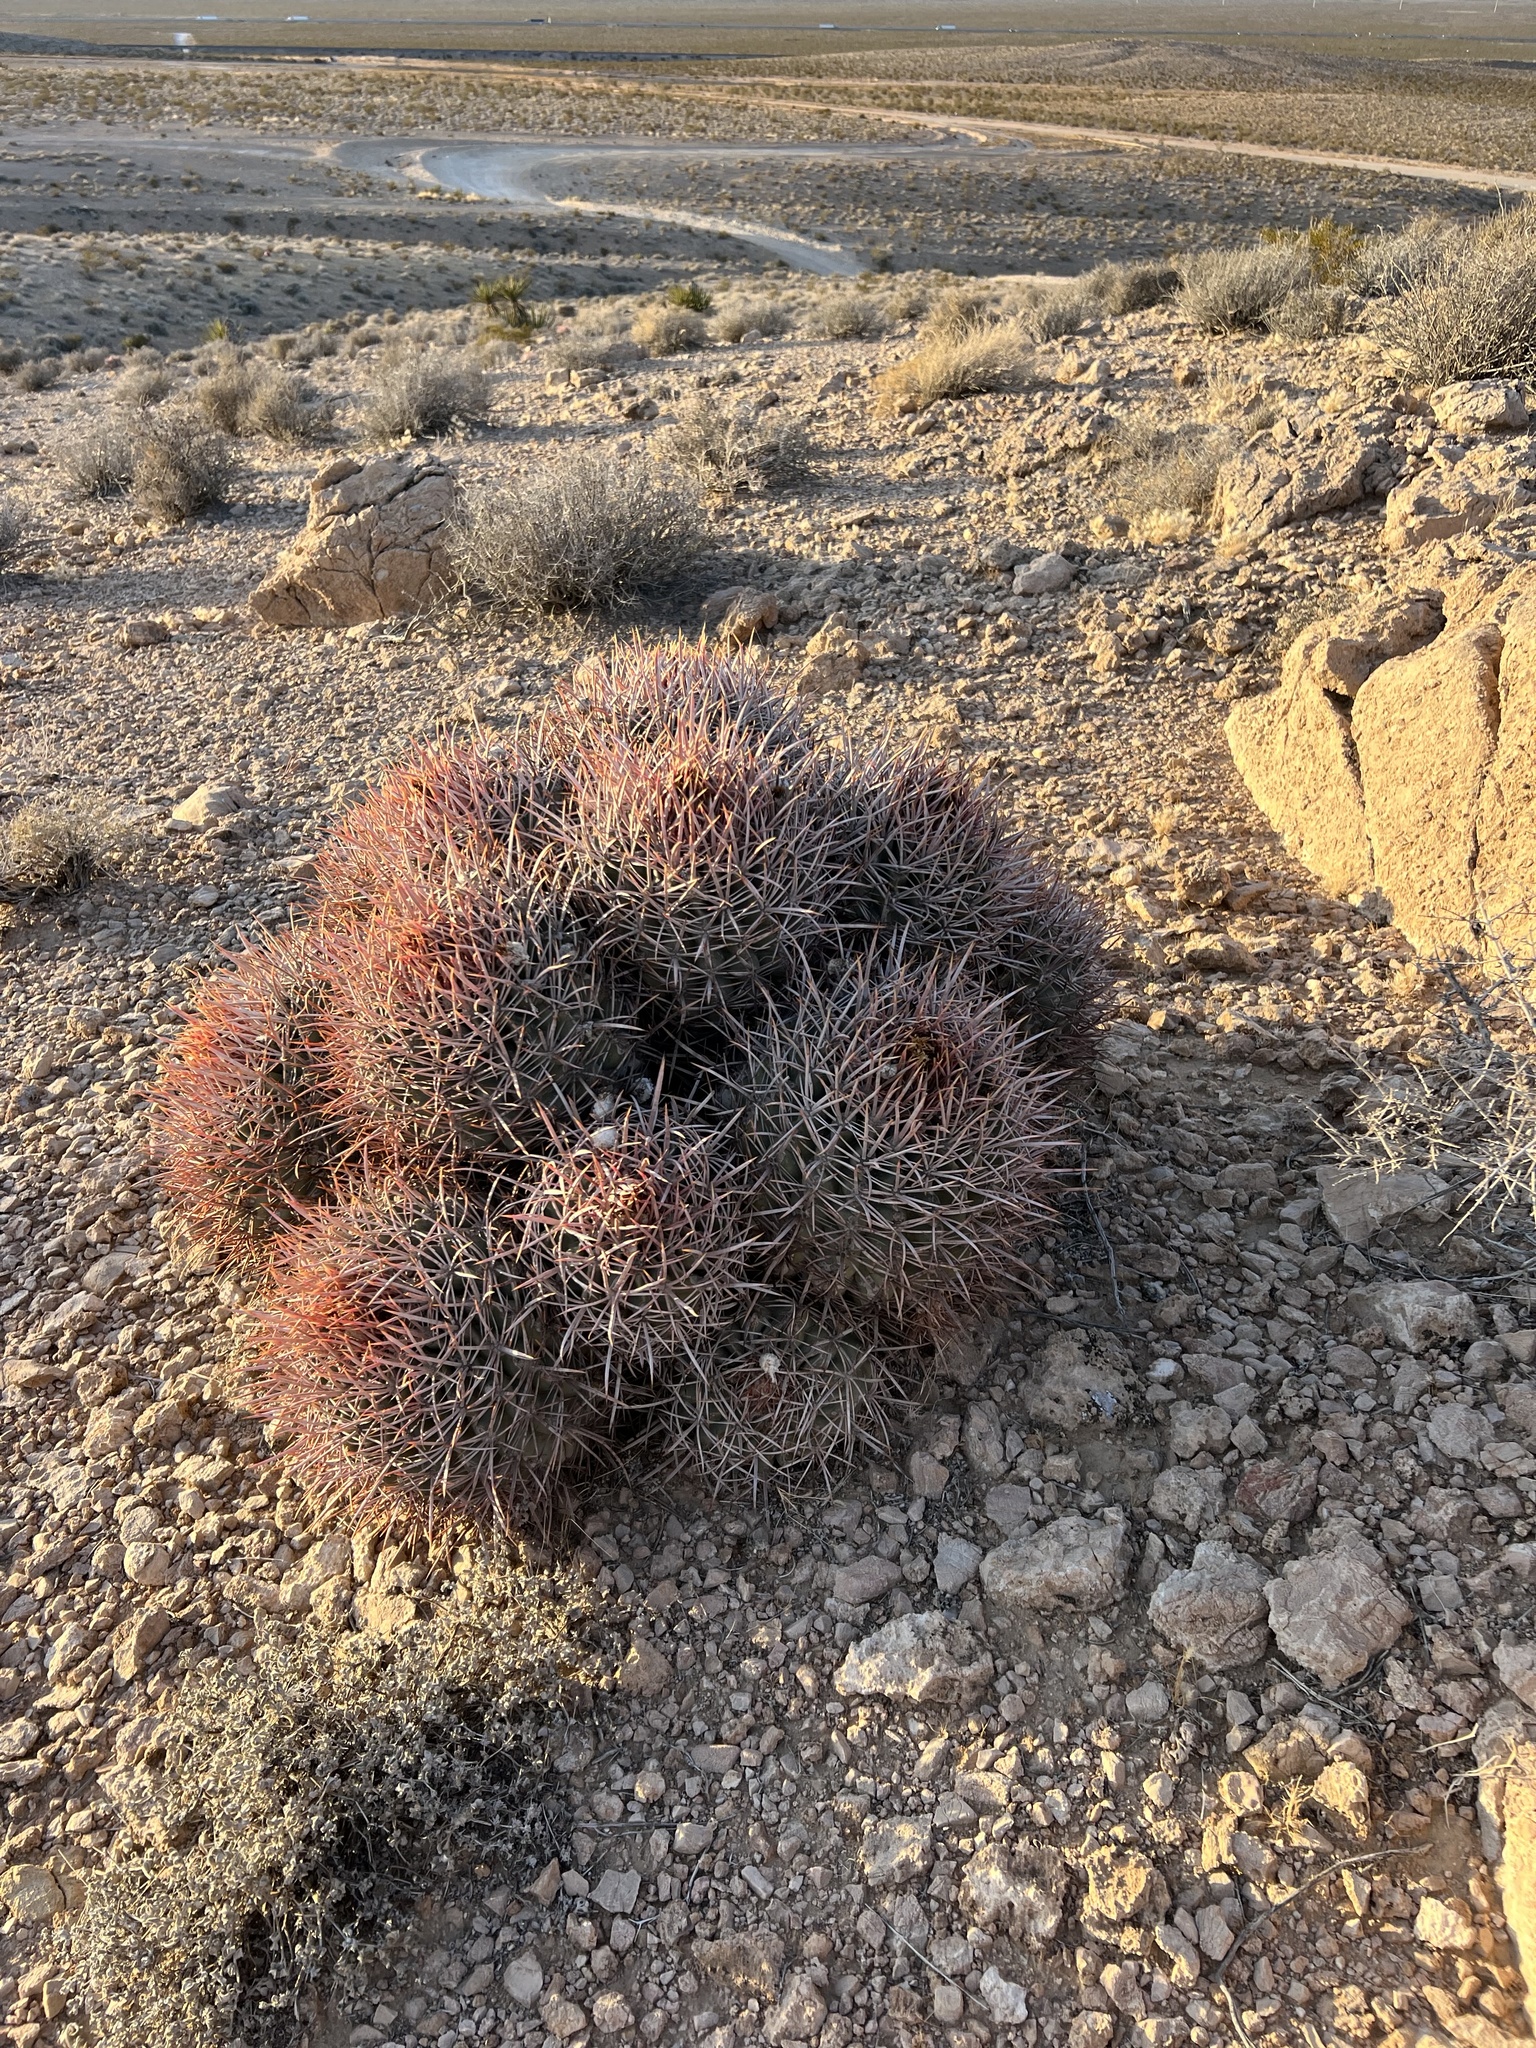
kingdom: Plantae
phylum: Tracheophyta
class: Magnoliopsida
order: Caryophyllales
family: Cactaceae
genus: Echinocactus
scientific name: Echinocactus polycephalus
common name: Cottontop cactus
